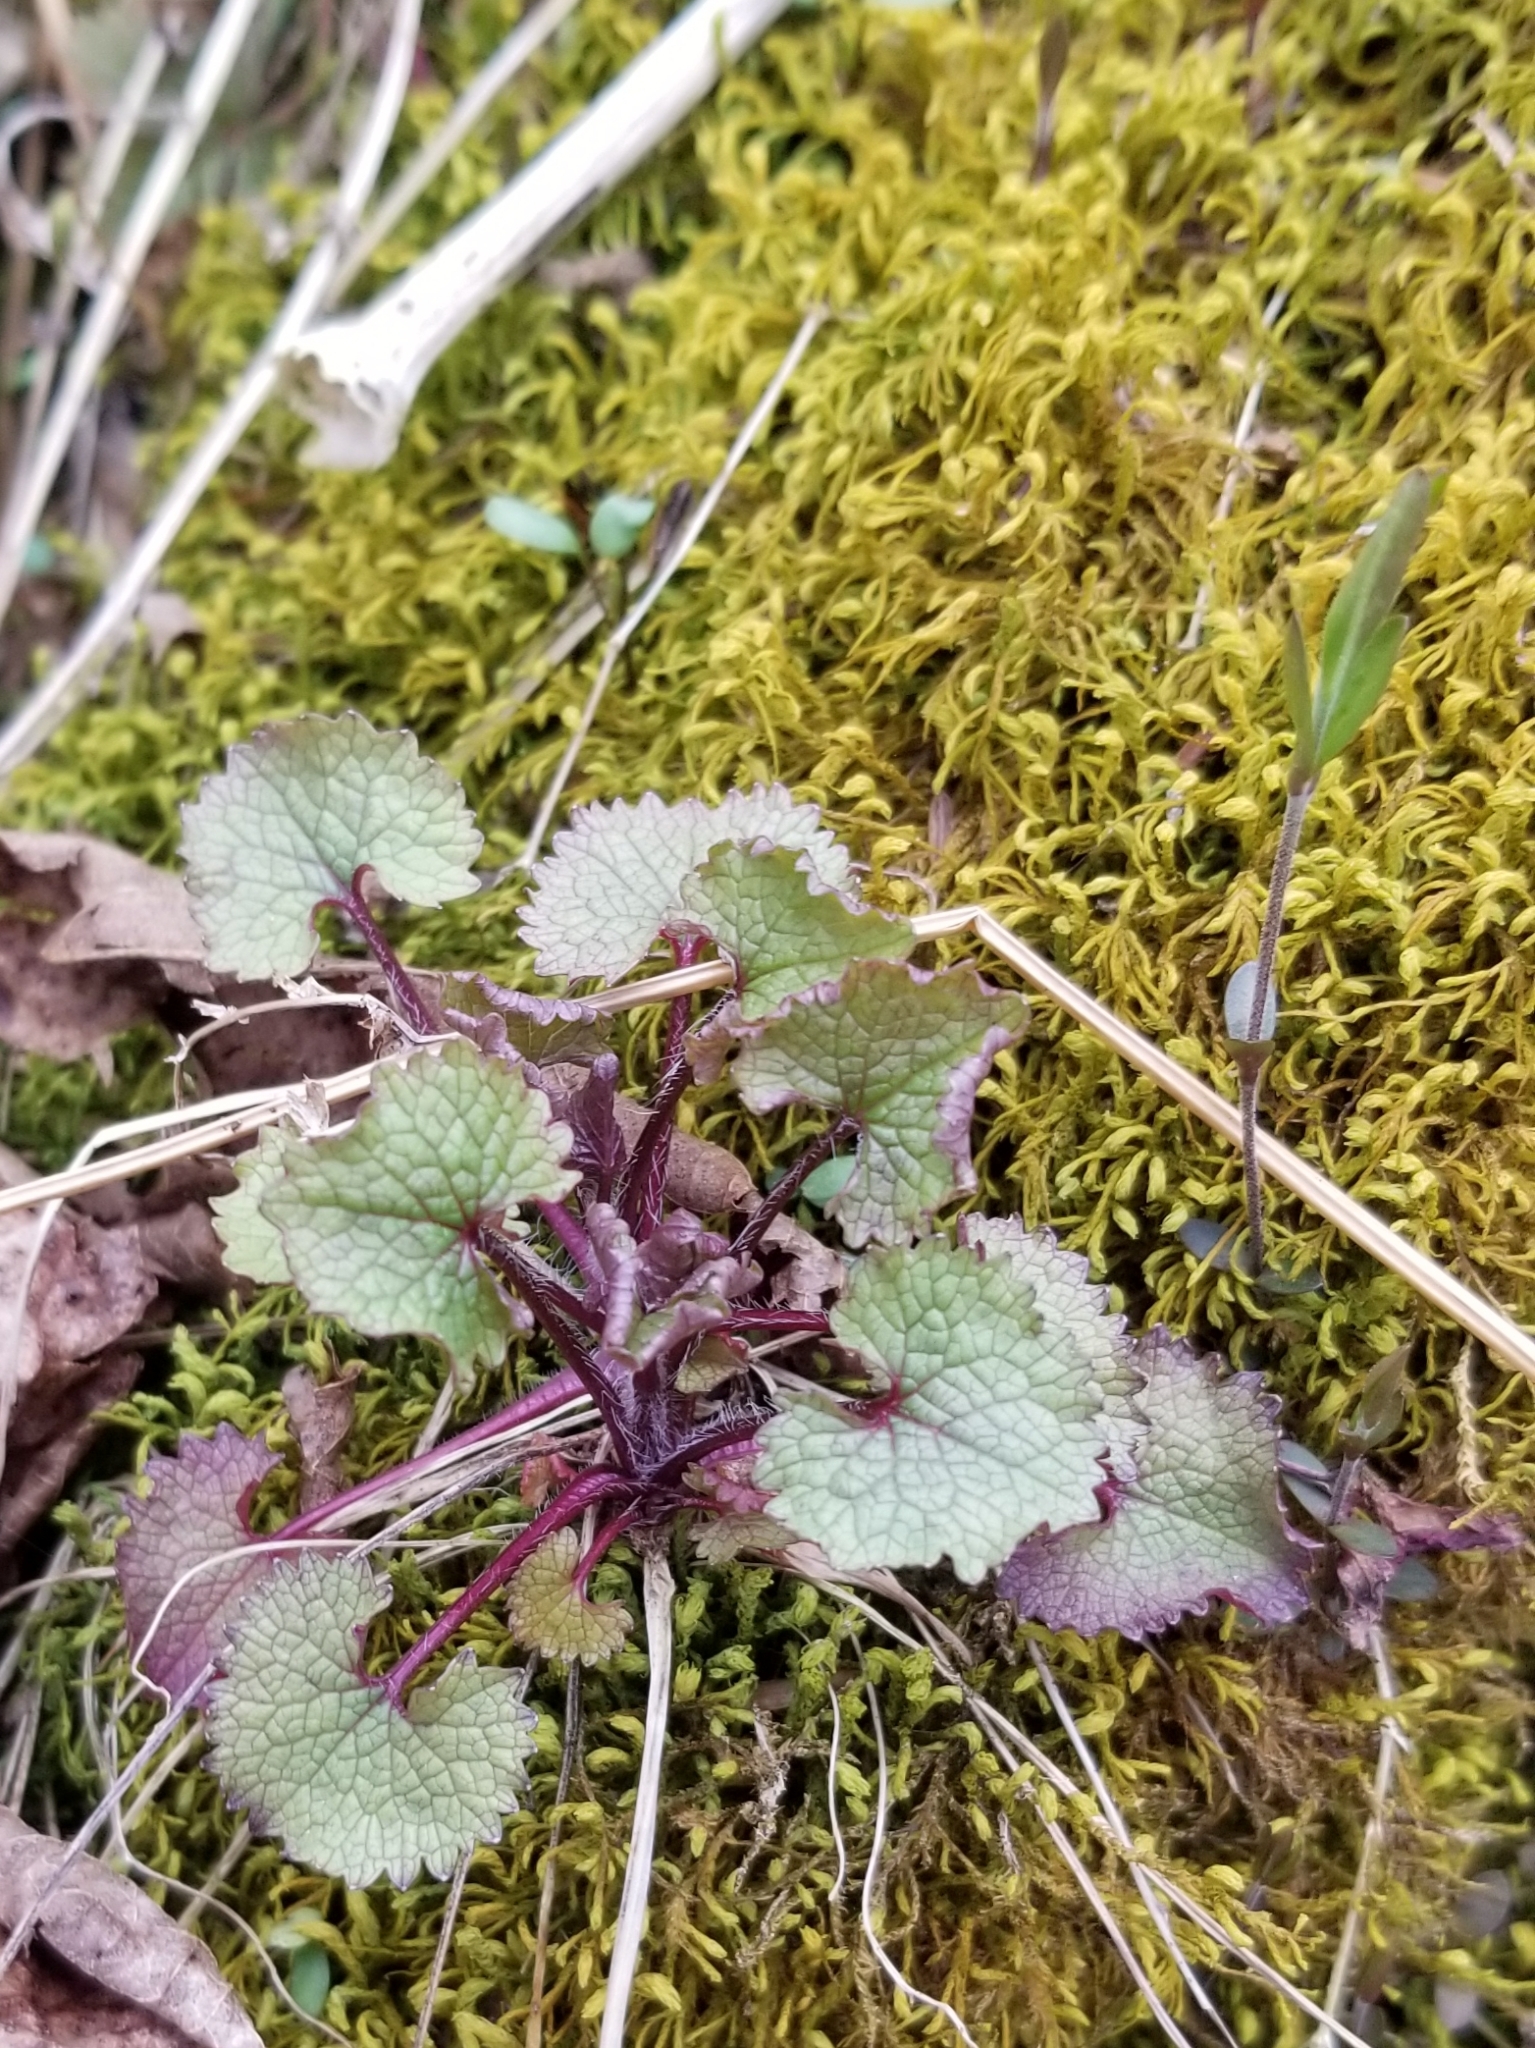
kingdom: Plantae
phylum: Tracheophyta
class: Magnoliopsida
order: Brassicales
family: Brassicaceae
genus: Alliaria
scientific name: Alliaria petiolata
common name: Garlic mustard
